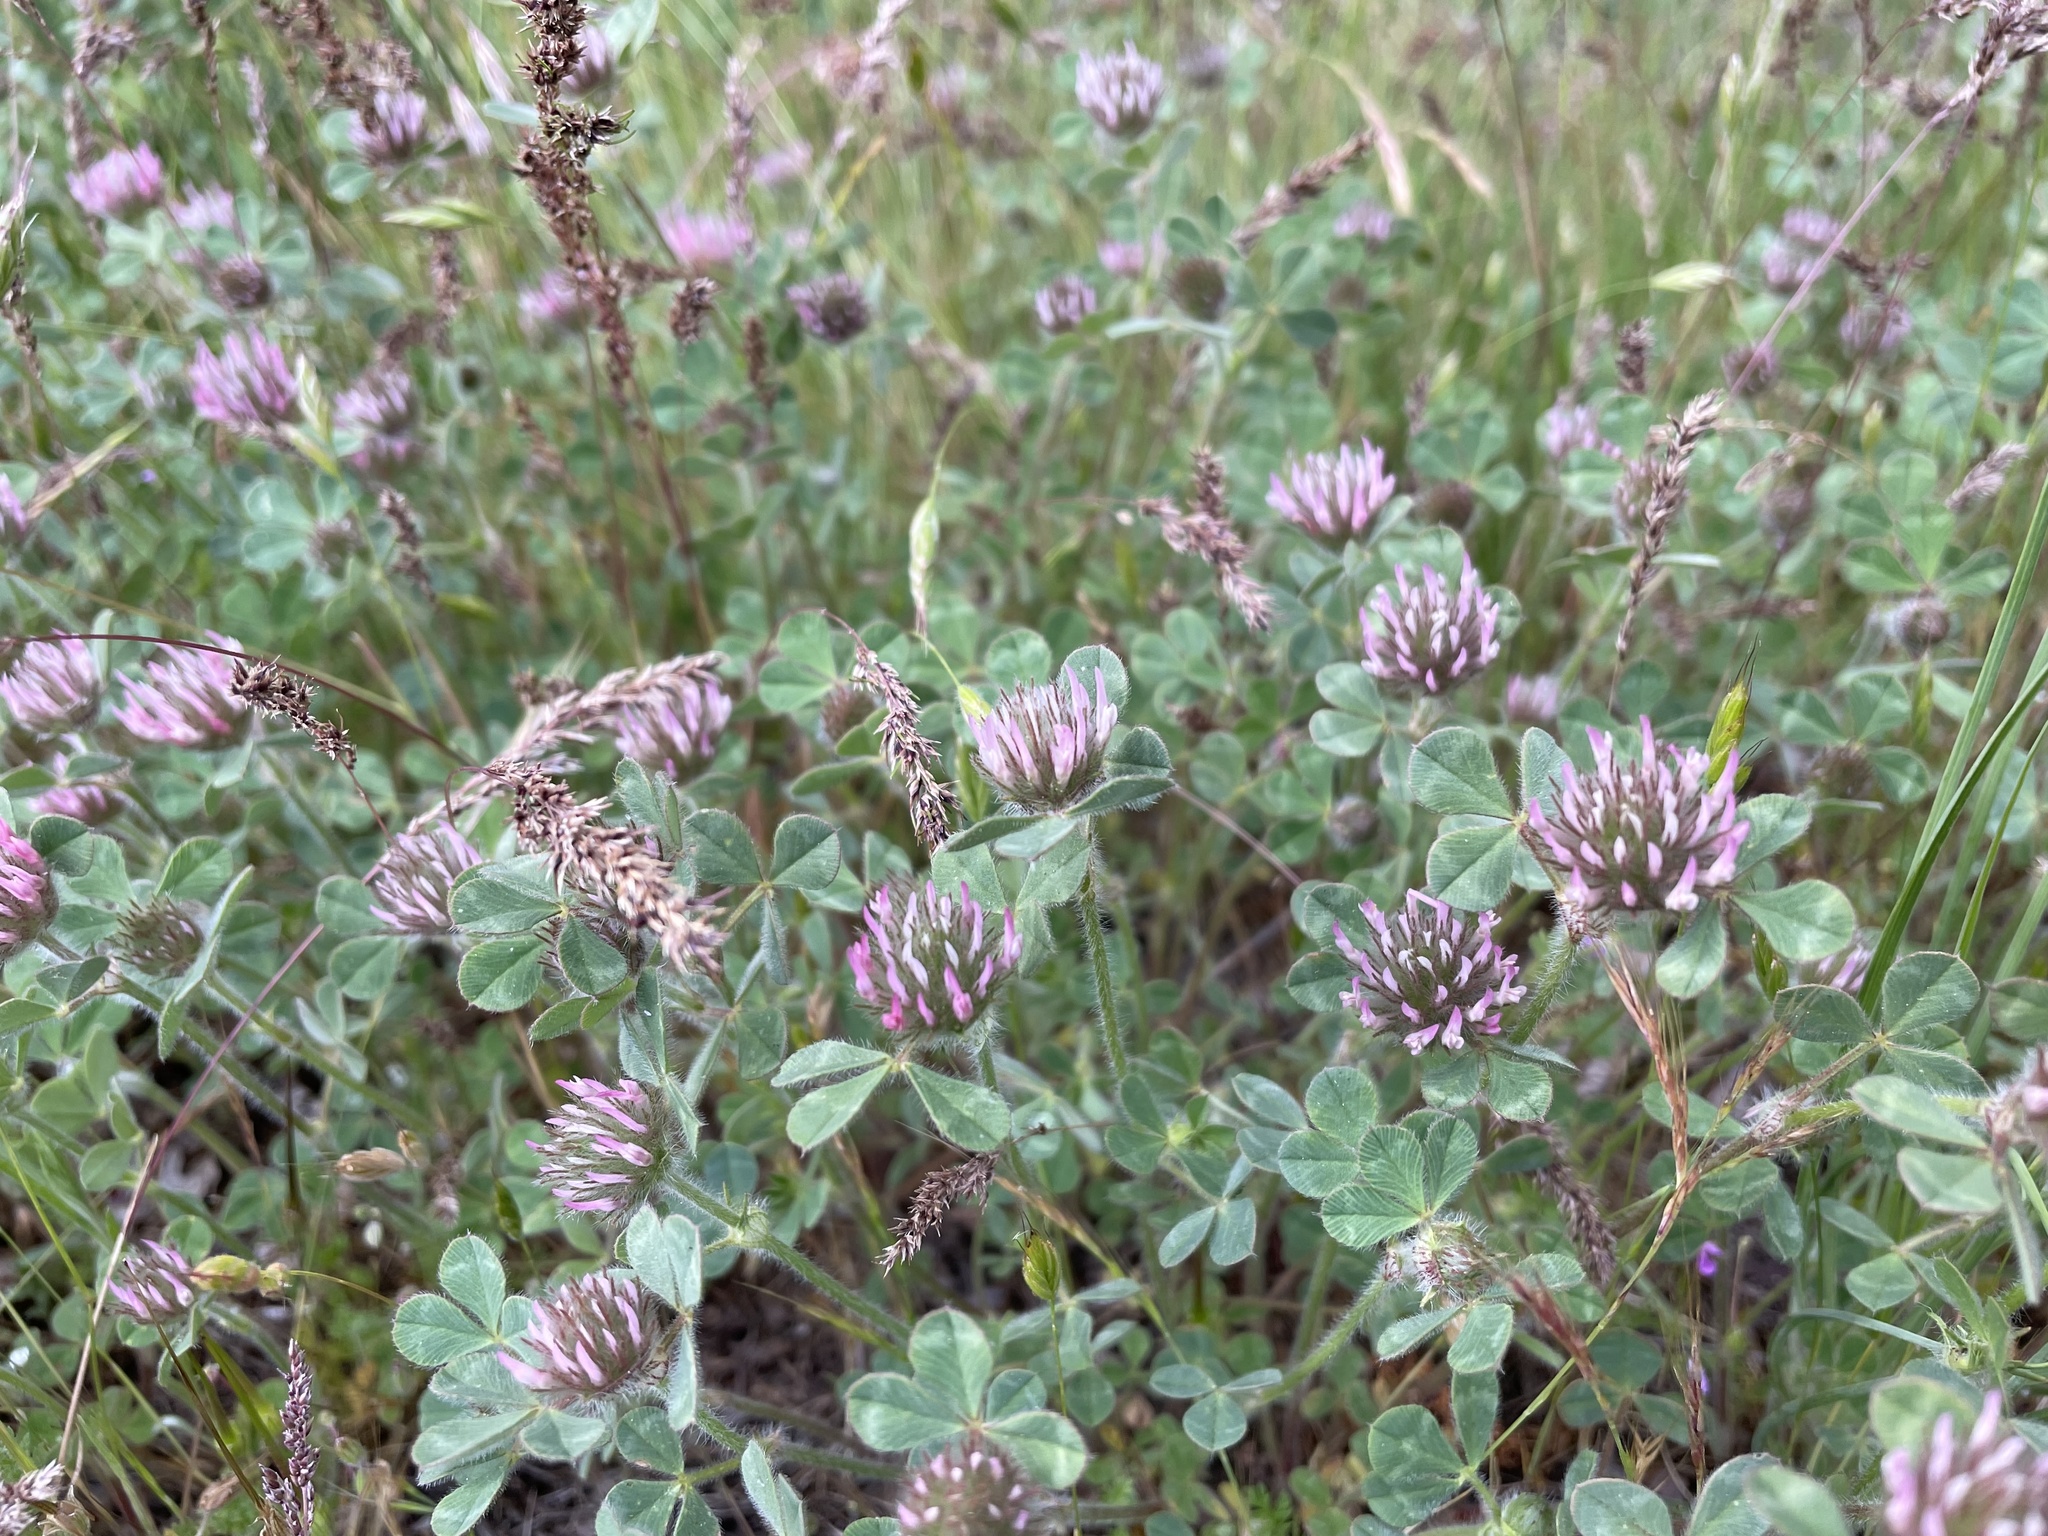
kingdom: Plantae
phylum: Tracheophyta
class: Magnoliopsida
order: Fabales
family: Fabaceae
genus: Trifolium
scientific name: Trifolium hirtum
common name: Rose clover
